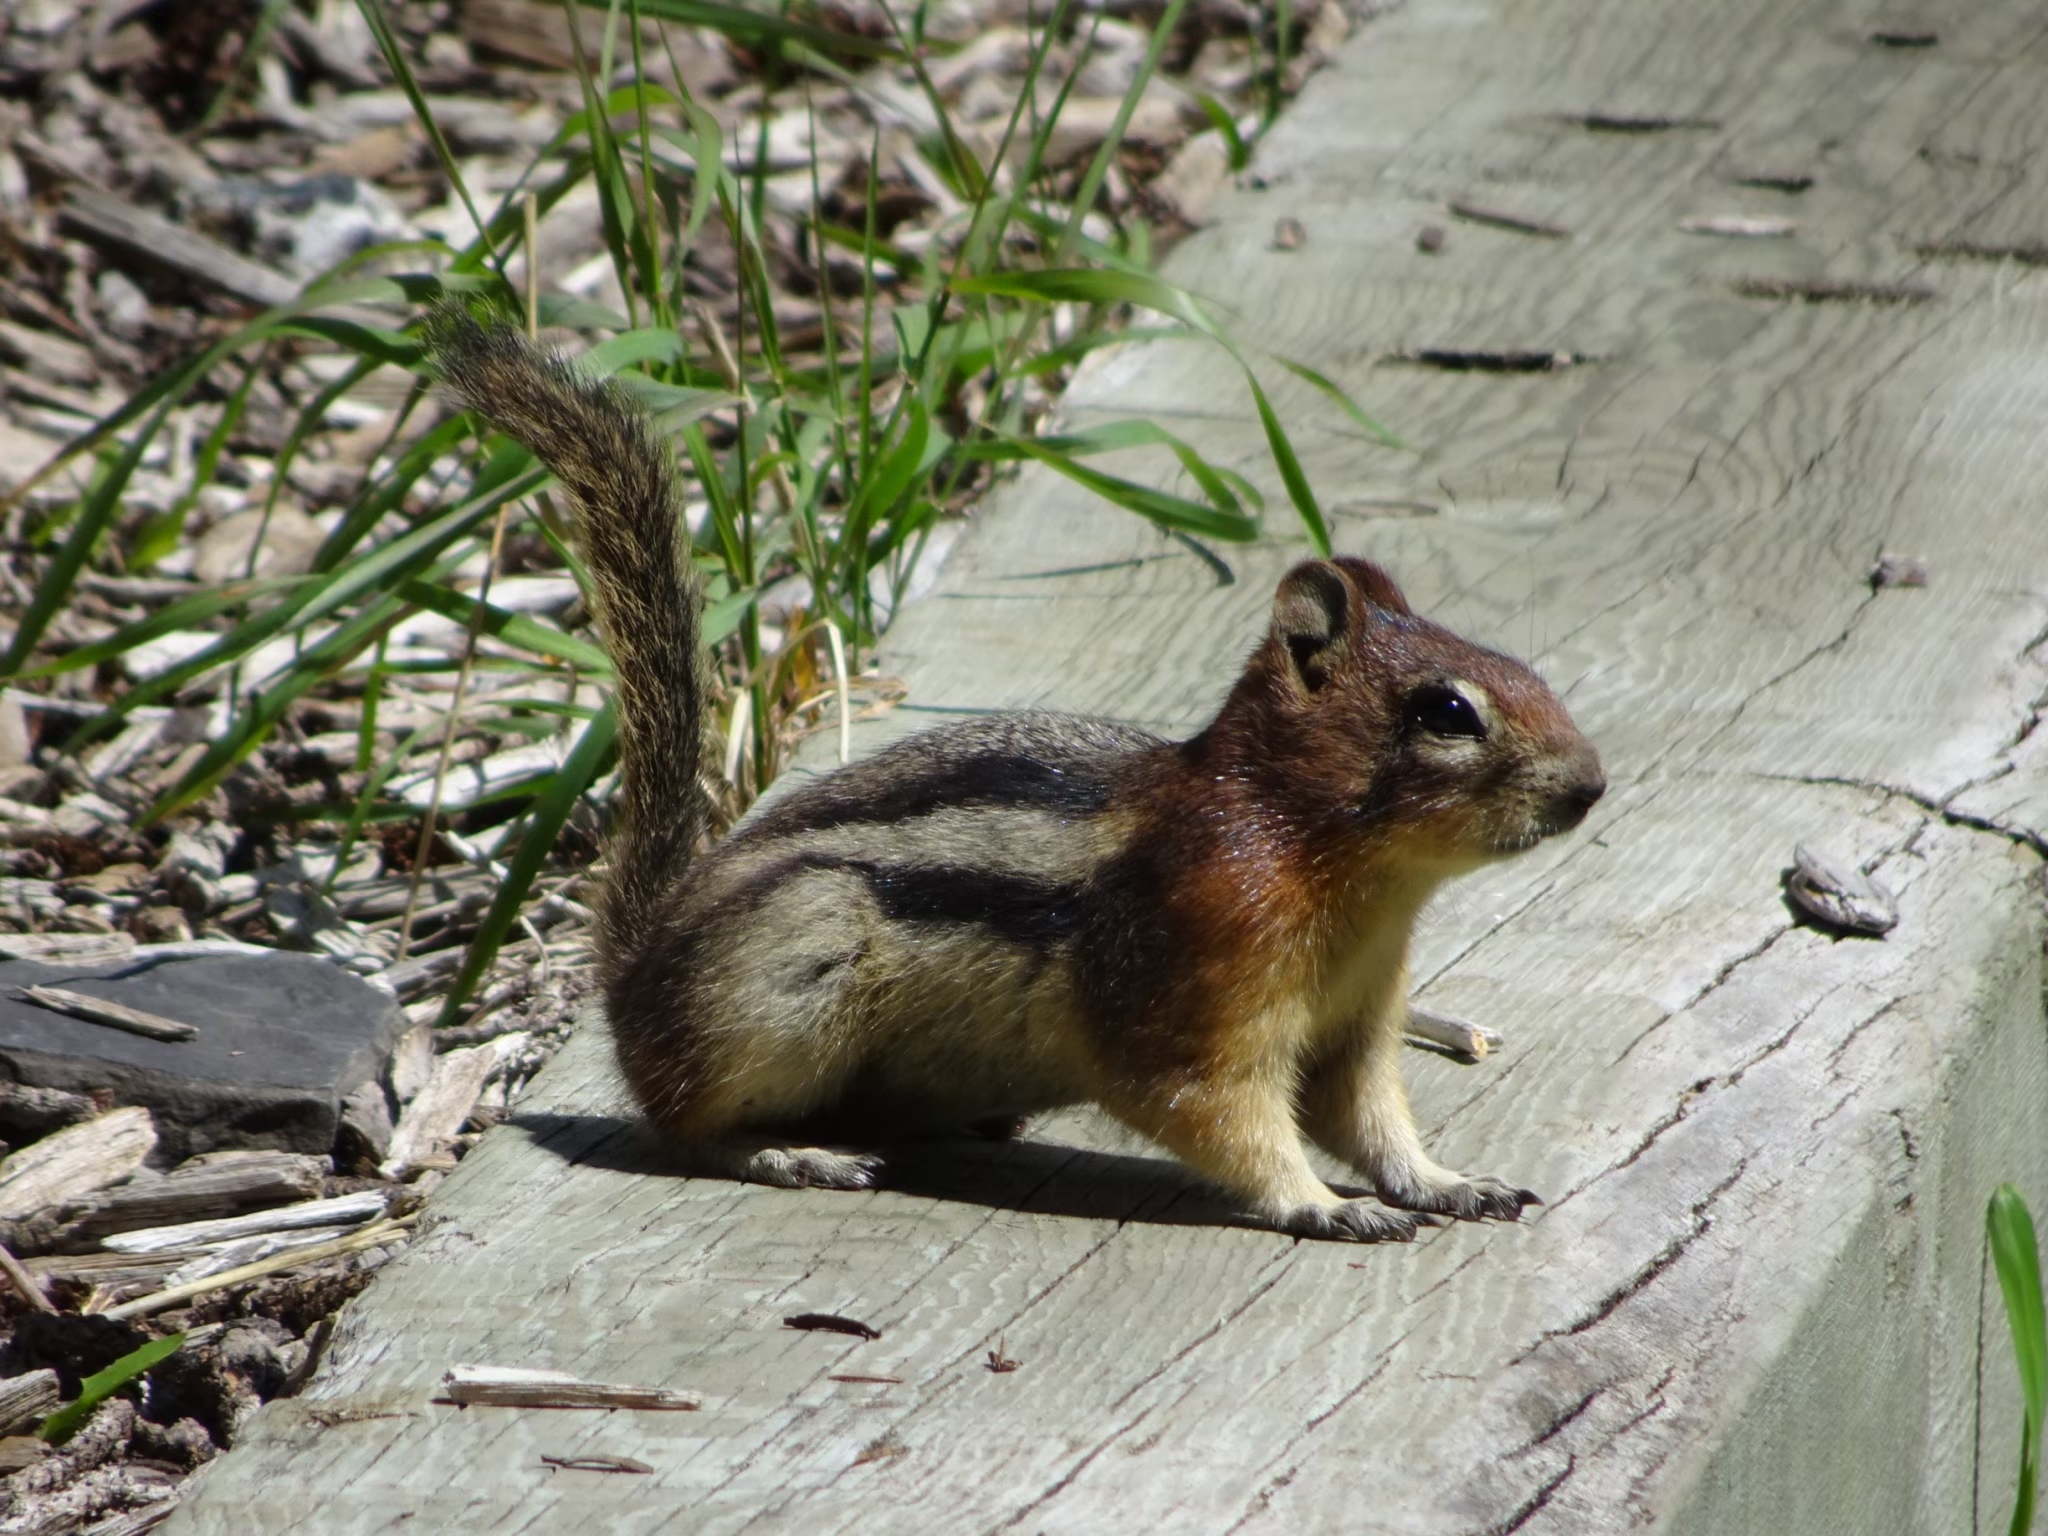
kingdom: Animalia
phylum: Chordata
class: Mammalia
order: Rodentia
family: Sciuridae
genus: Callospermophilus
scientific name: Callospermophilus lateralis
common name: Golden-mantled ground squirrel
